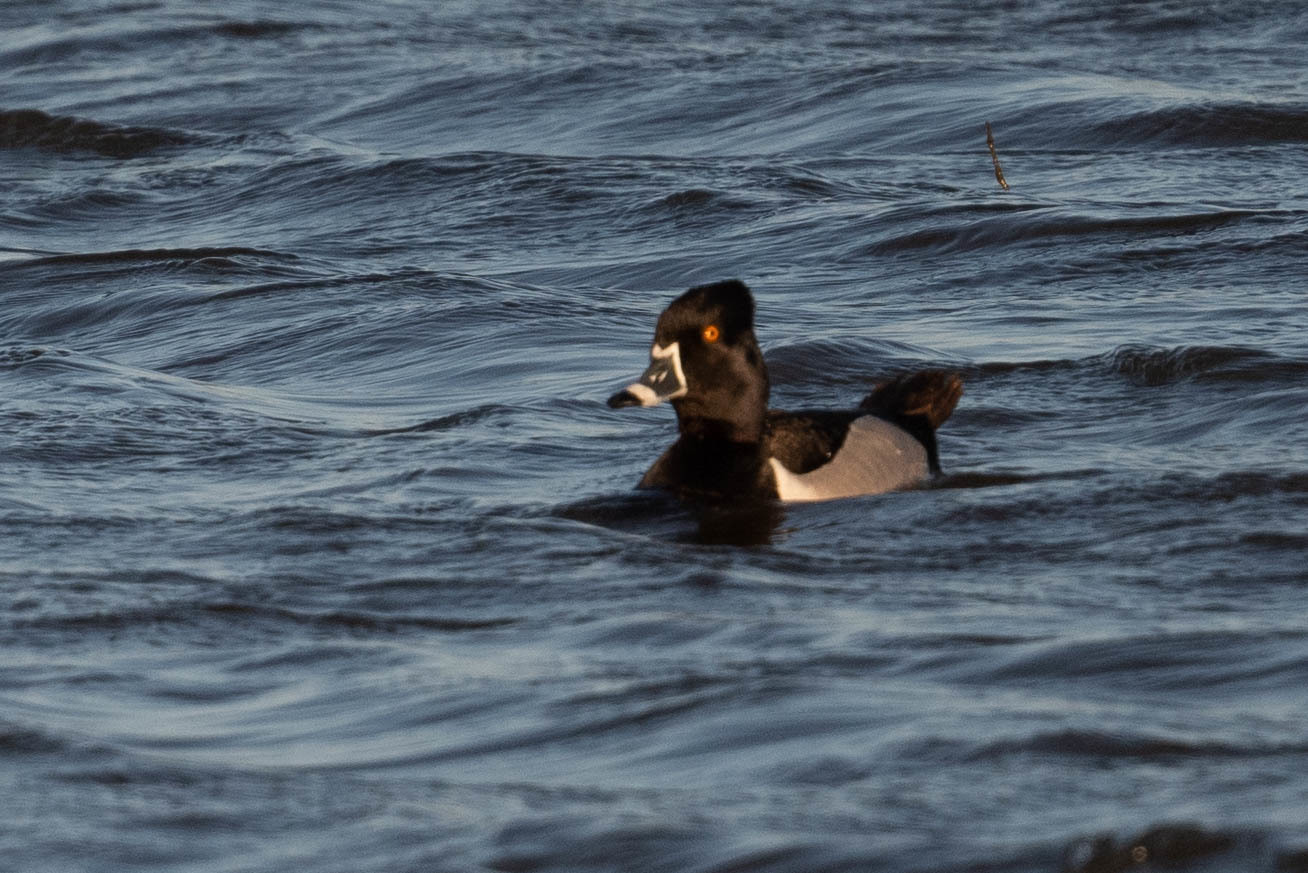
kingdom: Animalia
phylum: Chordata
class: Aves
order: Anseriformes
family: Anatidae
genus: Aythya
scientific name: Aythya collaris
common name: Ring-necked duck
